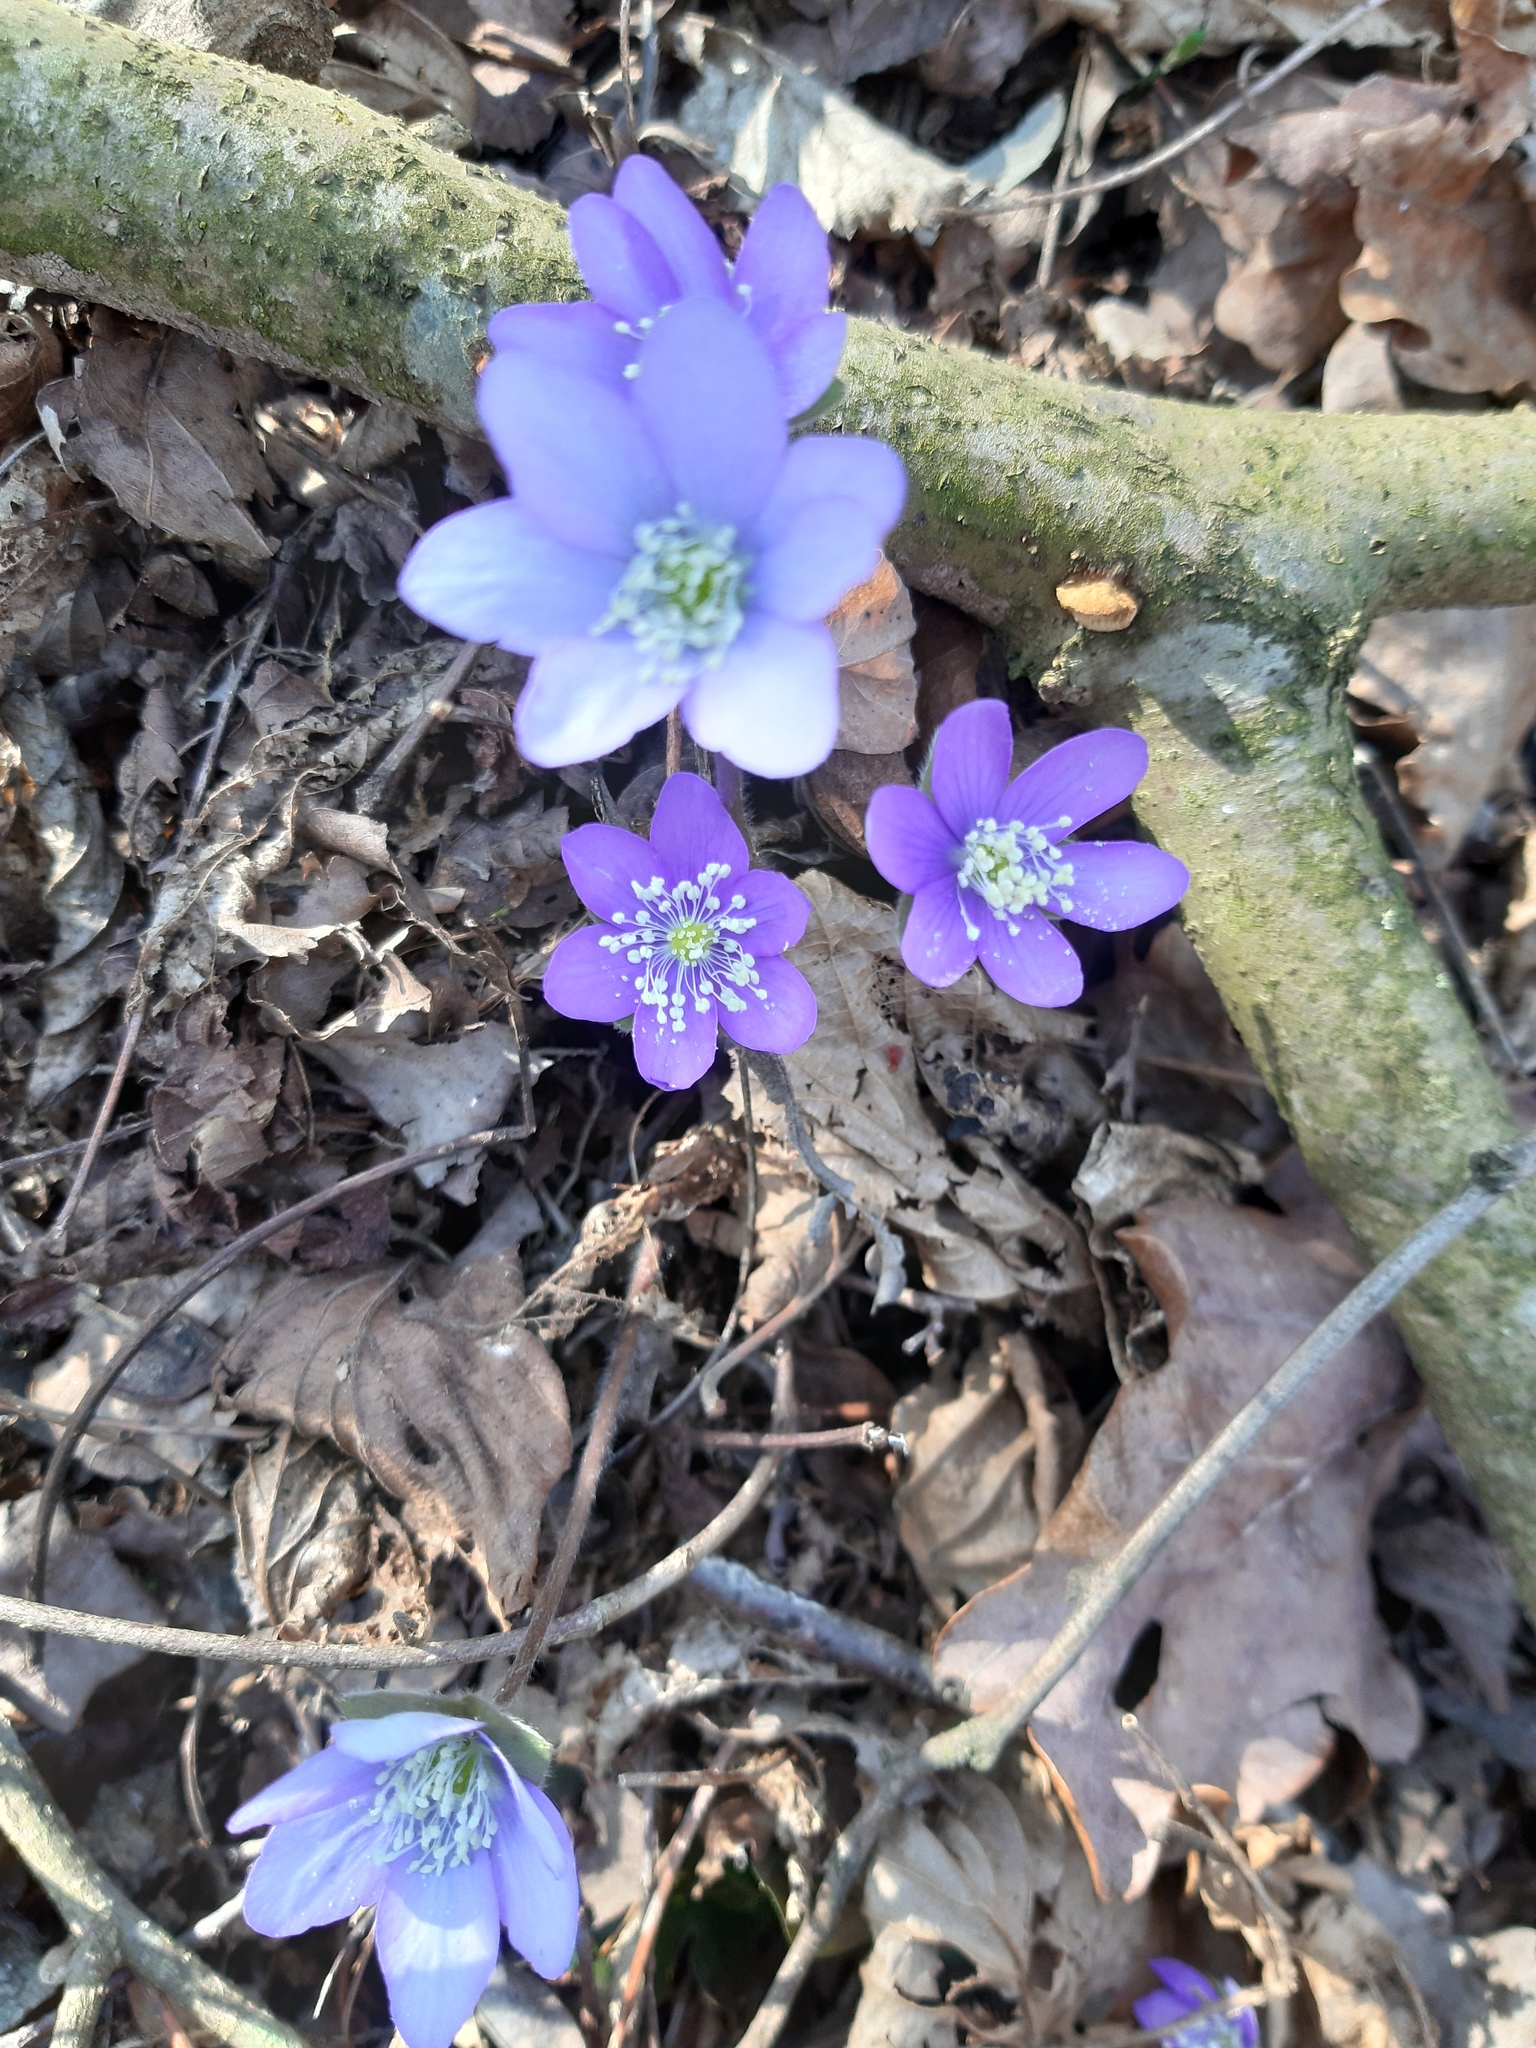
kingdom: Plantae
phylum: Tracheophyta
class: Magnoliopsida
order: Ranunculales
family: Ranunculaceae
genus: Hepatica
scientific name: Hepatica nobilis
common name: Liverleaf
